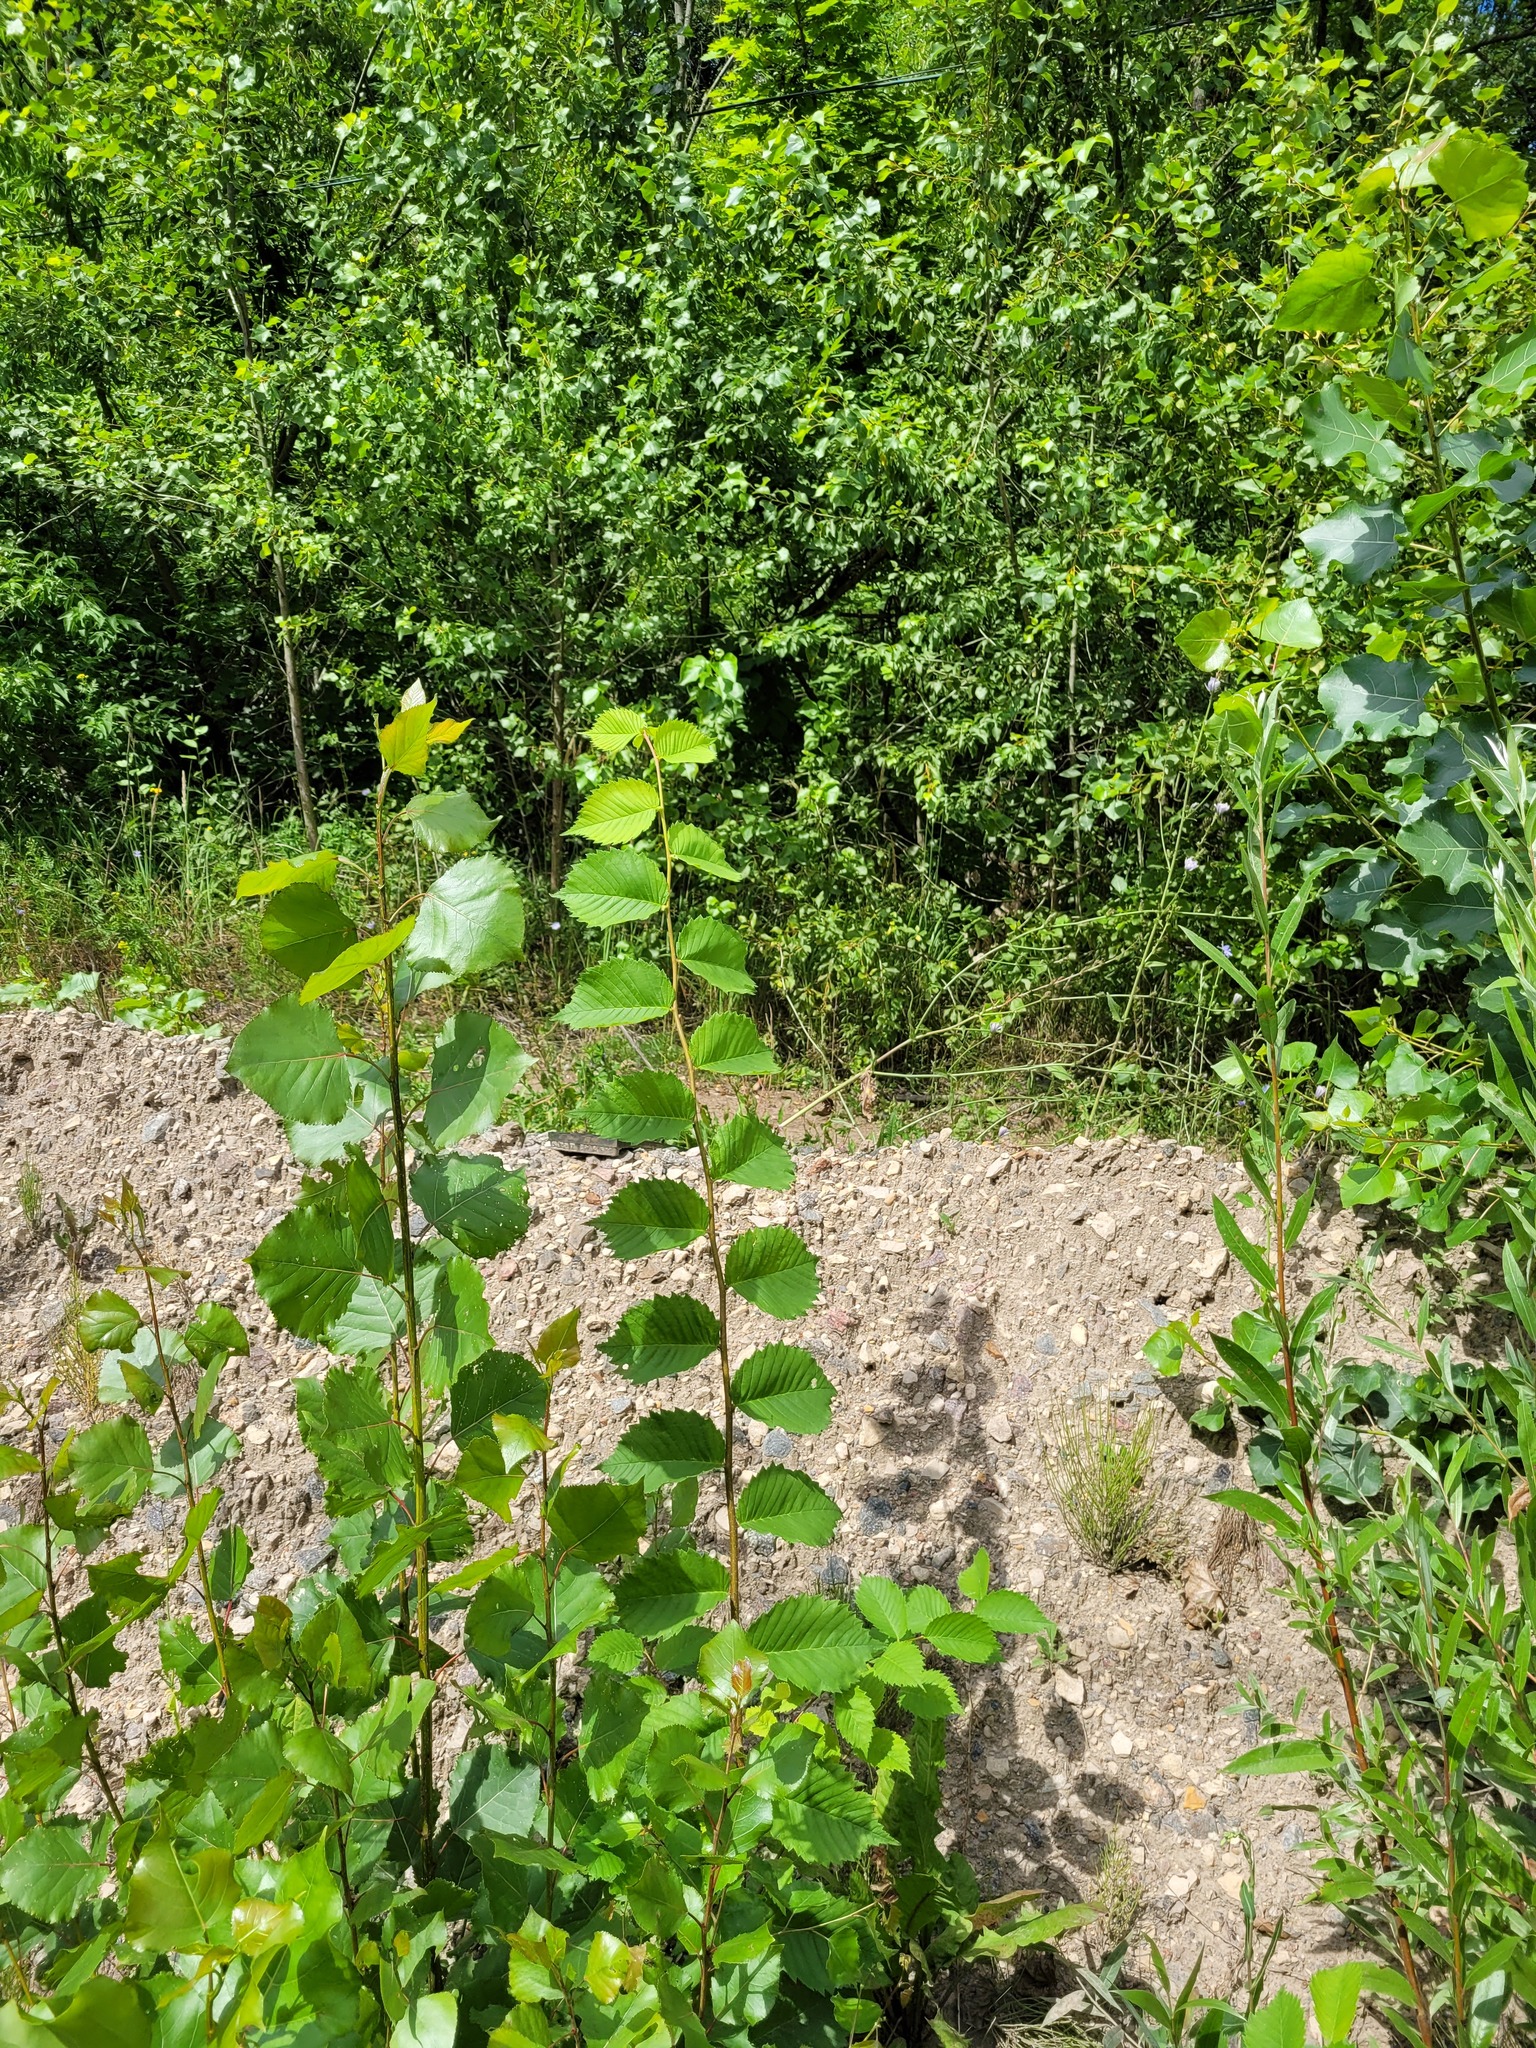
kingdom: Plantae
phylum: Tracheophyta
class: Magnoliopsida
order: Rosales
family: Ulmaceae
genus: Ulmus
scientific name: Ulmus laevis
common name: European white-elm
